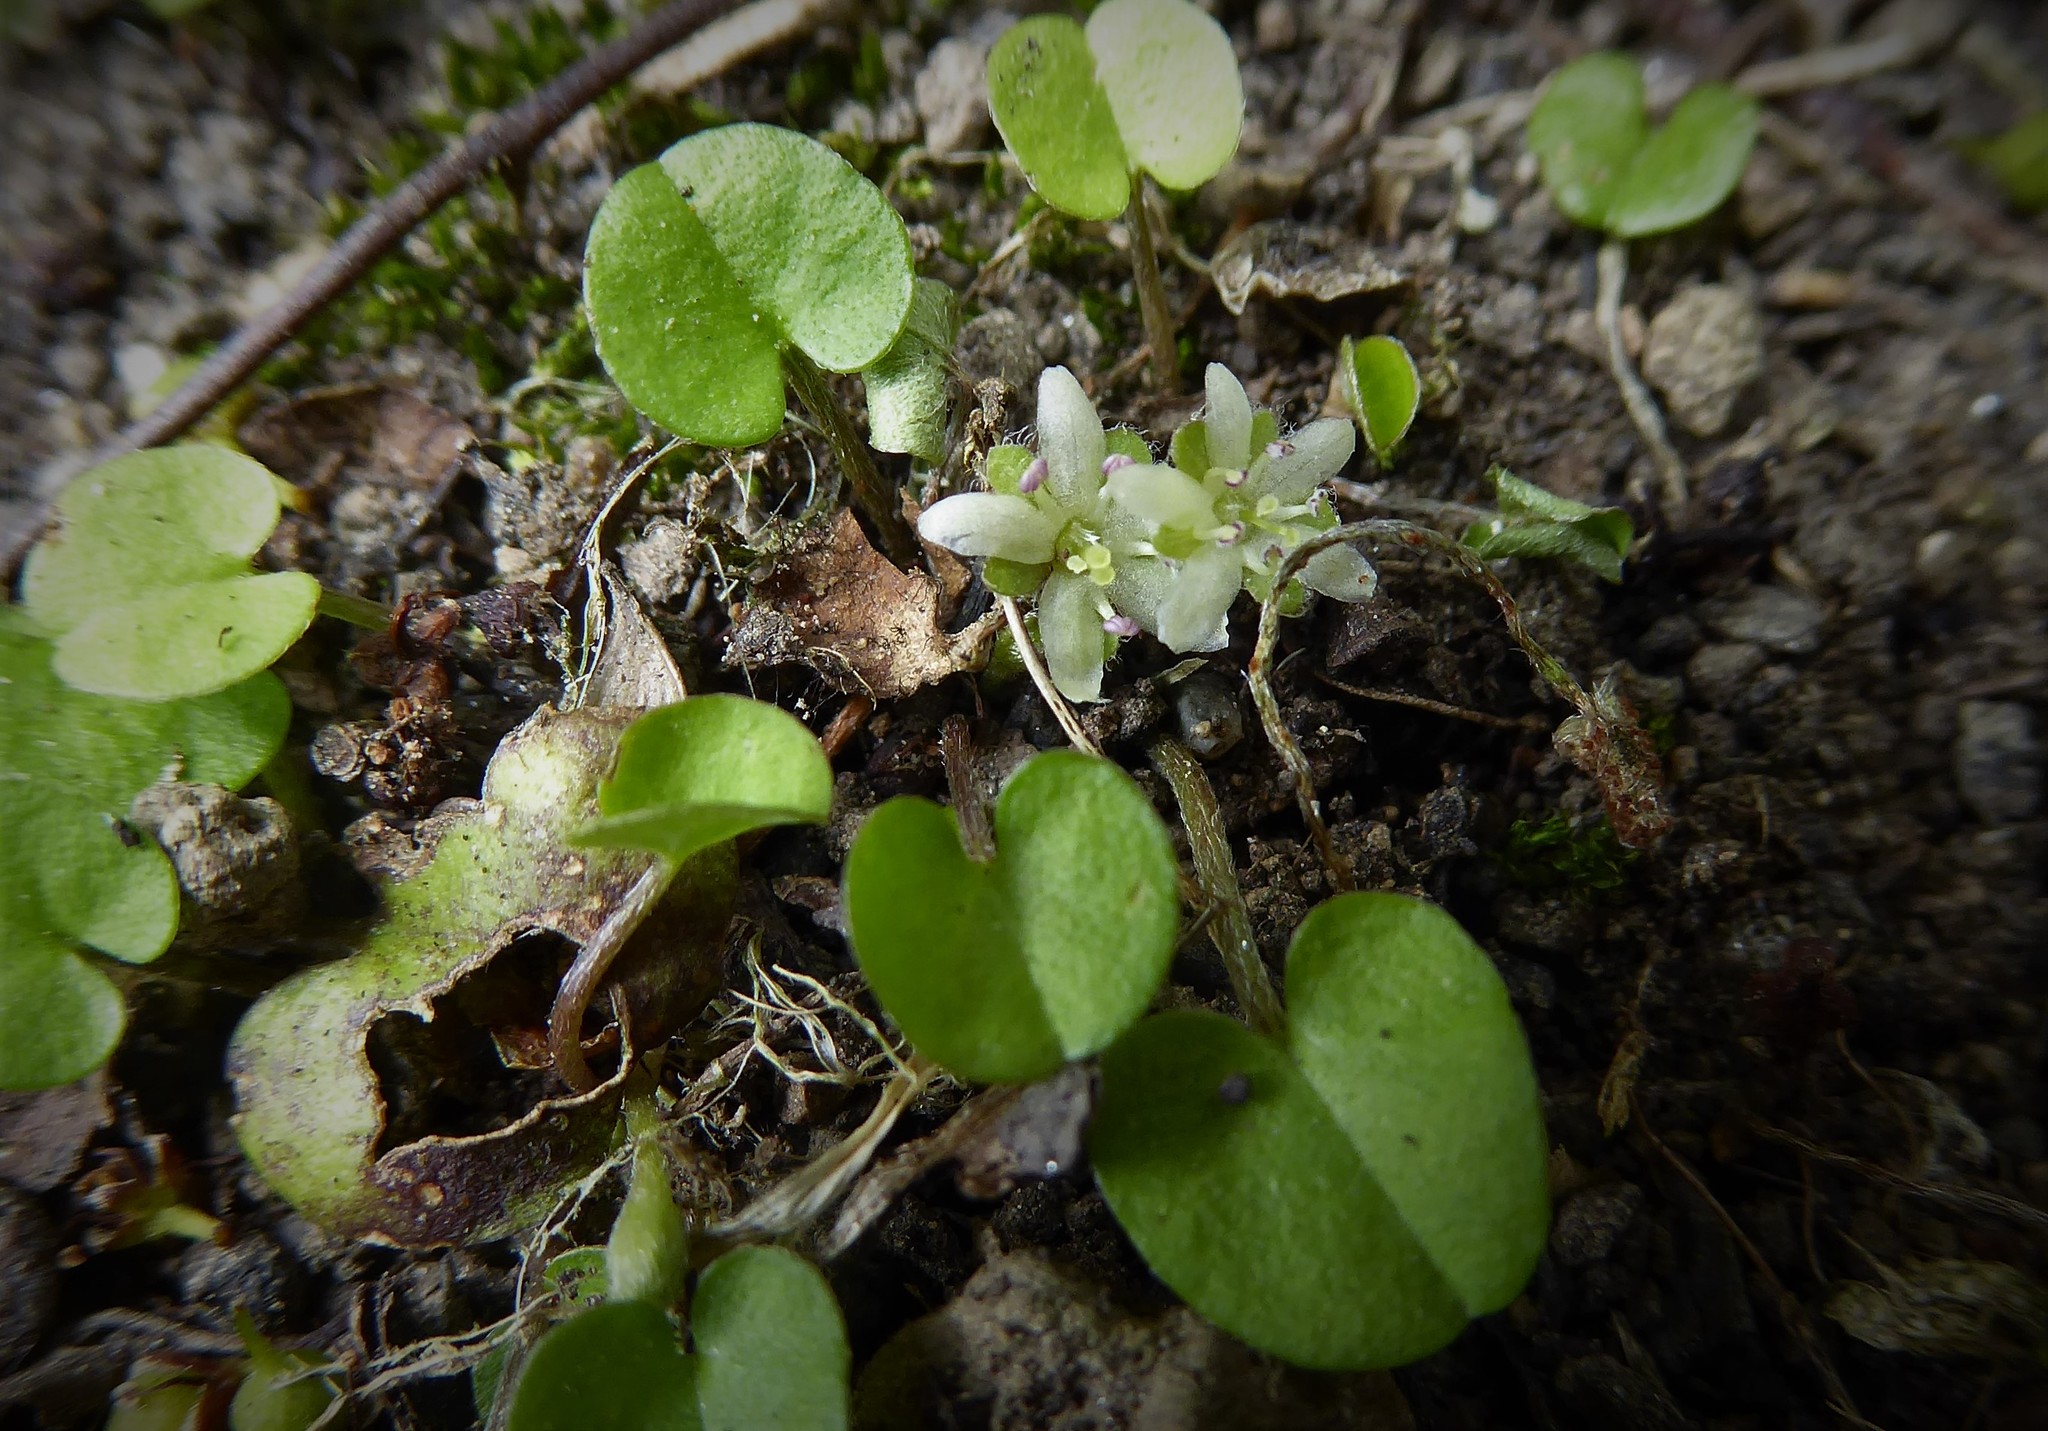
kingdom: Plantae
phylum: Tracheophyta
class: Magnoliopsida
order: Solanales
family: Convolvulaceae
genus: Dichondra
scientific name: Dichondra repens
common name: Kidneyweed
